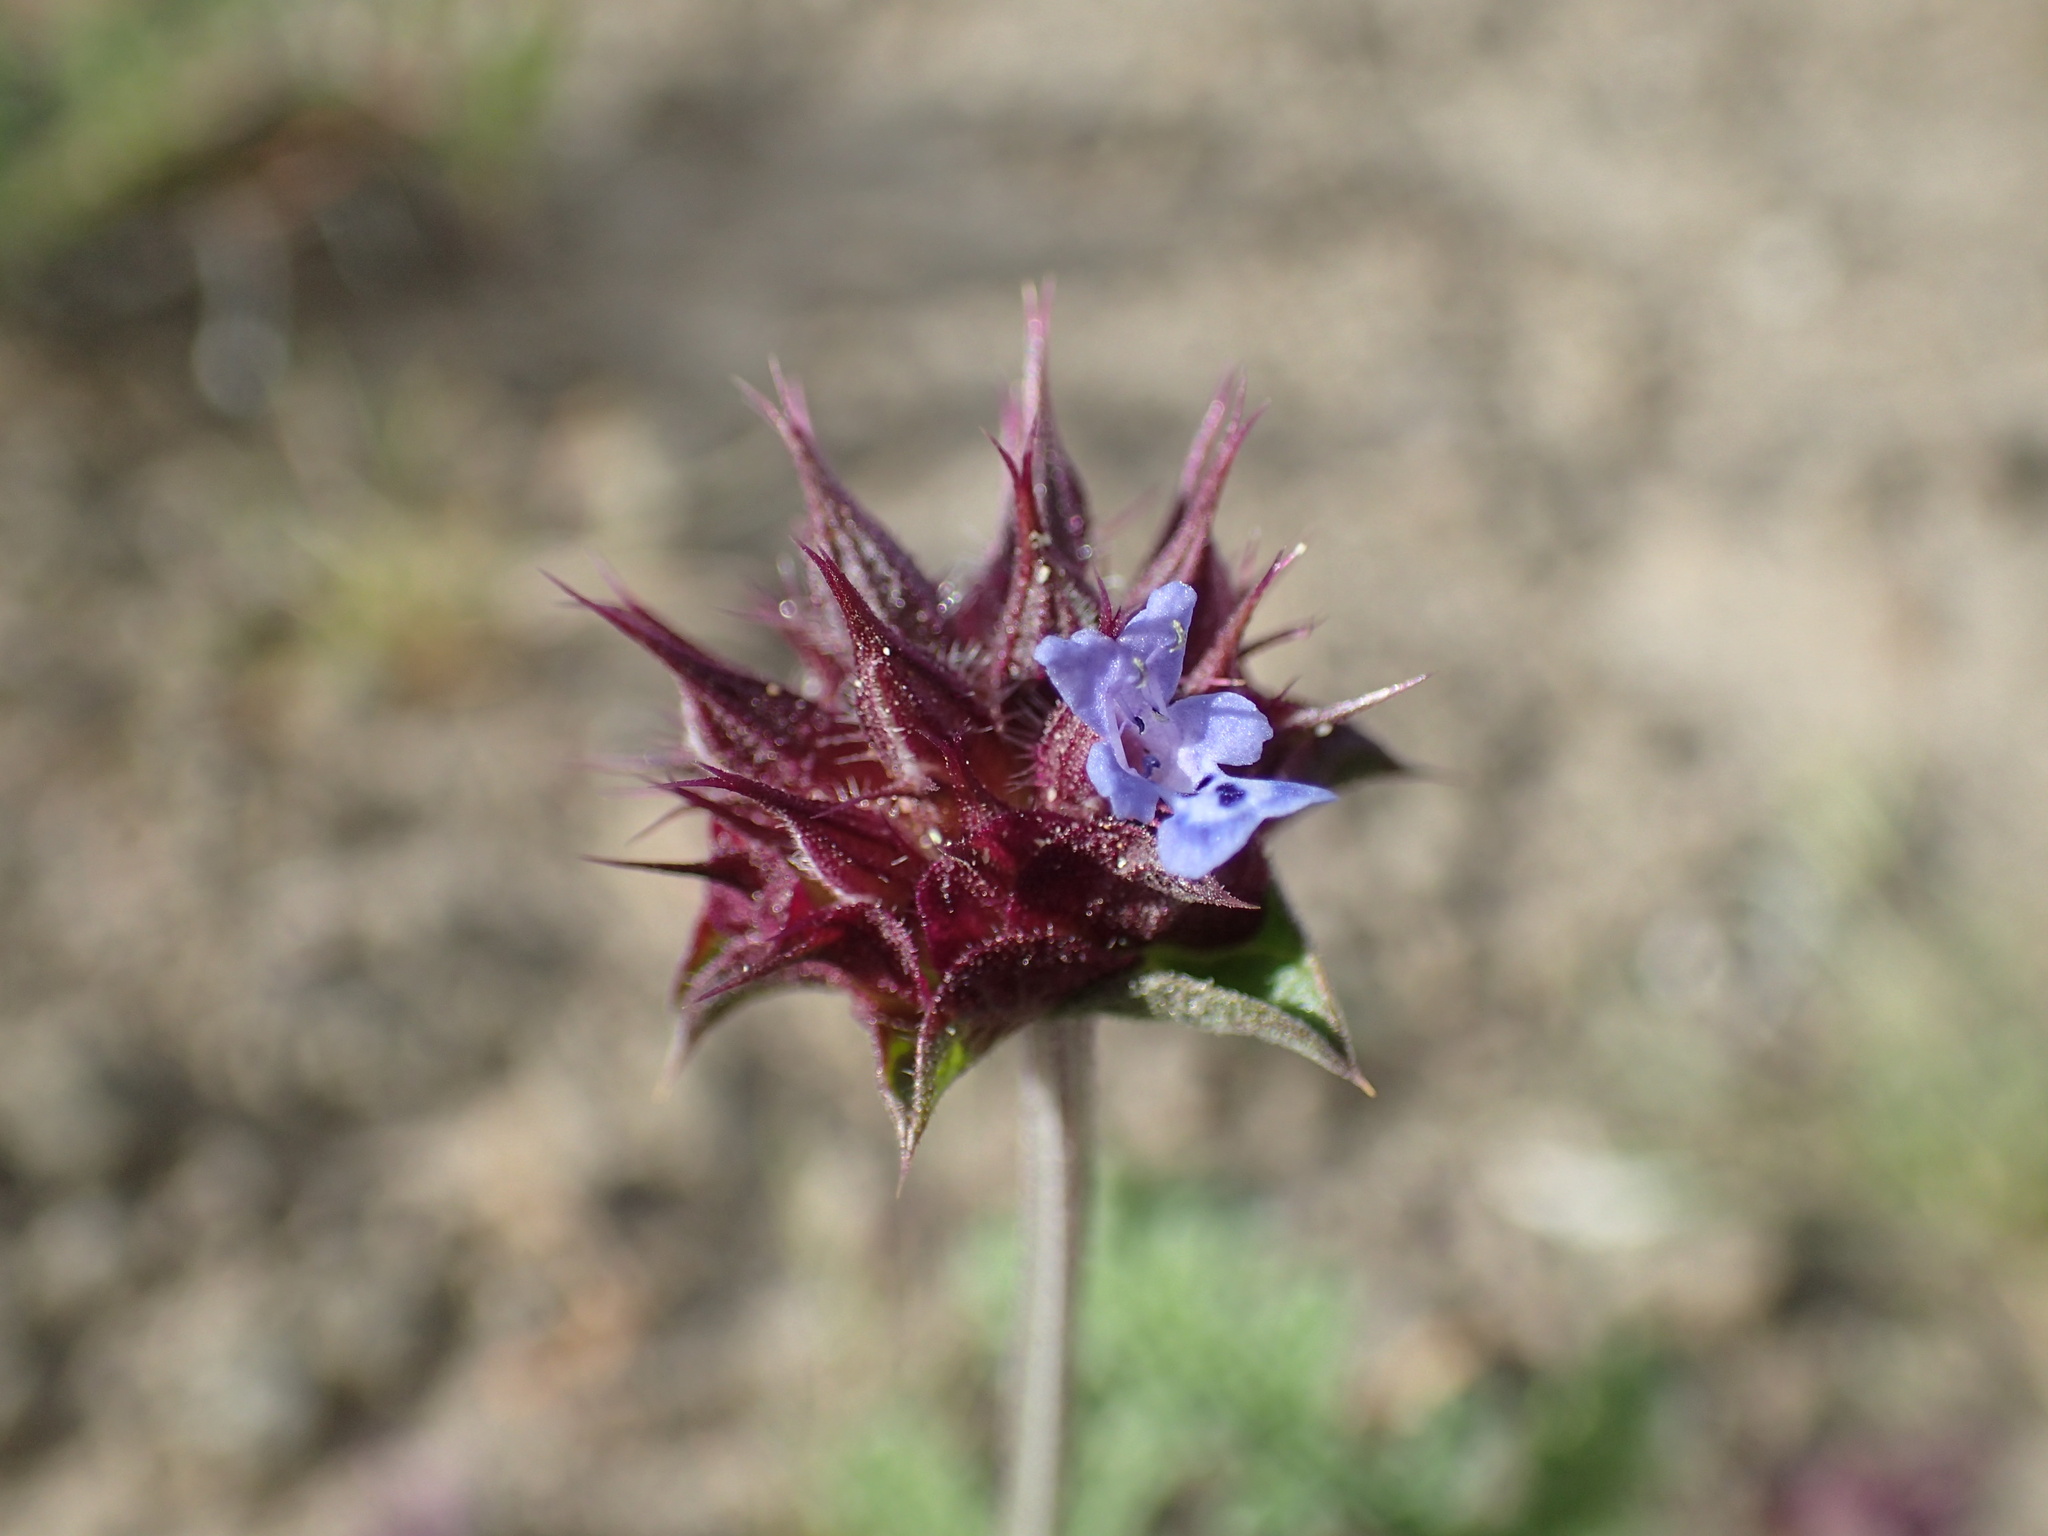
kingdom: Plantae
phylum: Tracheophyta
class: Magnoliopsida
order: Lamiales
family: Lamiaceae
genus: Salvia
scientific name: Salvia columbariae
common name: Chia
